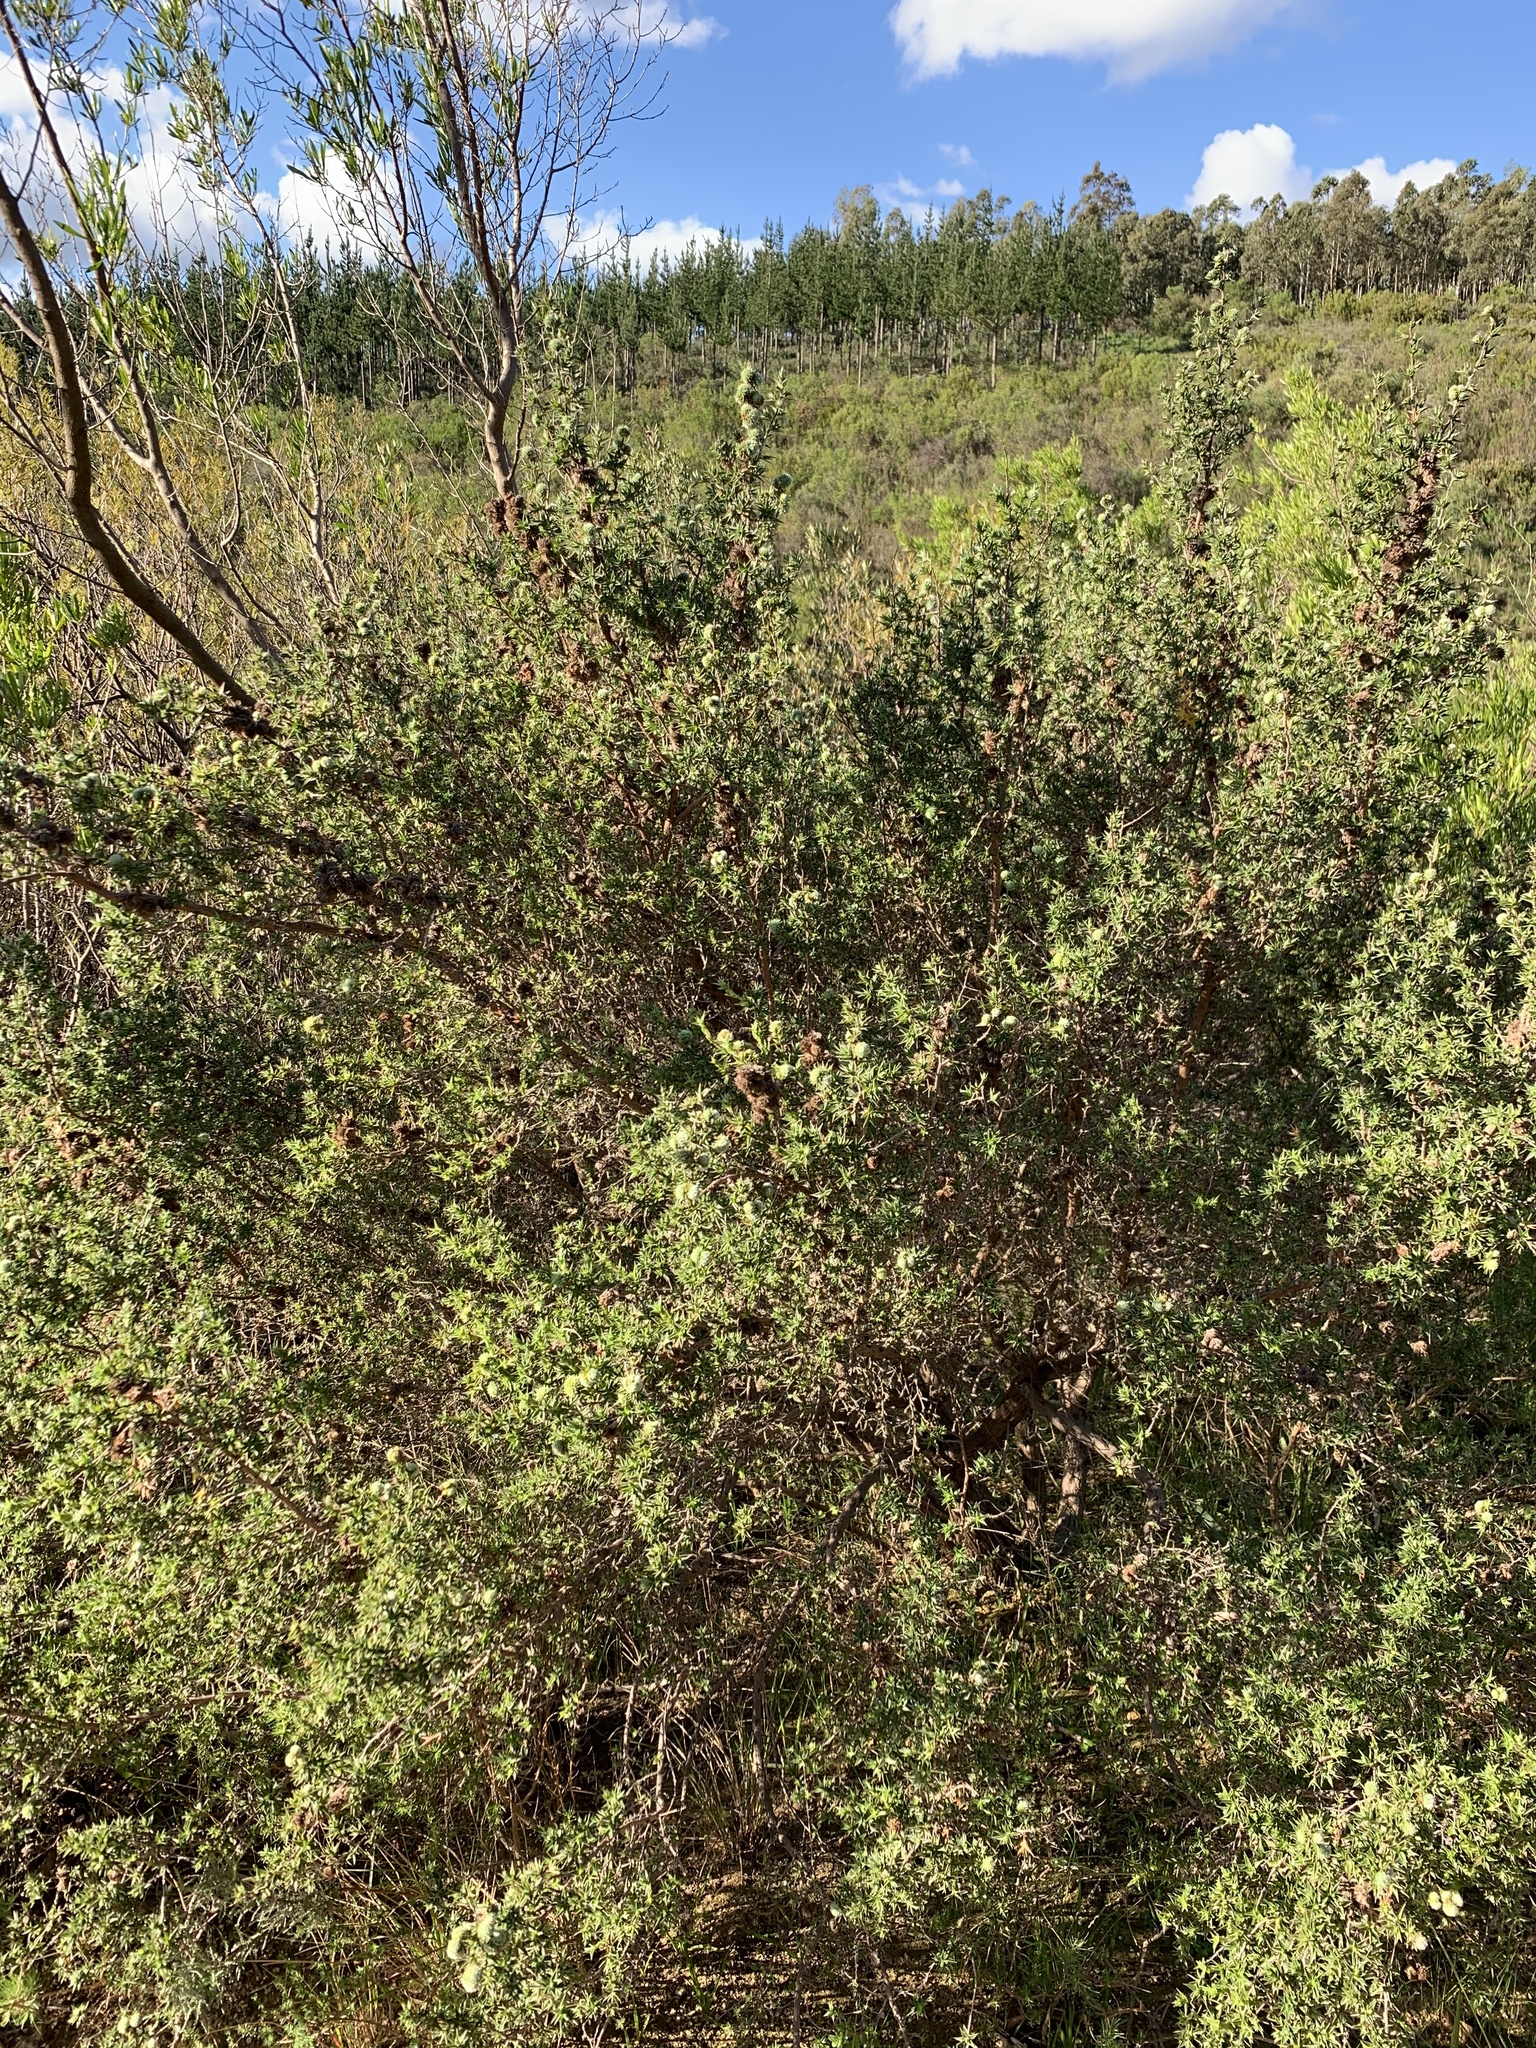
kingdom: Plantae
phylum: Tracheophyta
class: Magnoliopsida
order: Rosales
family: Rosaceae
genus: Cliffortia
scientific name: Cliffortia ruscifolia
